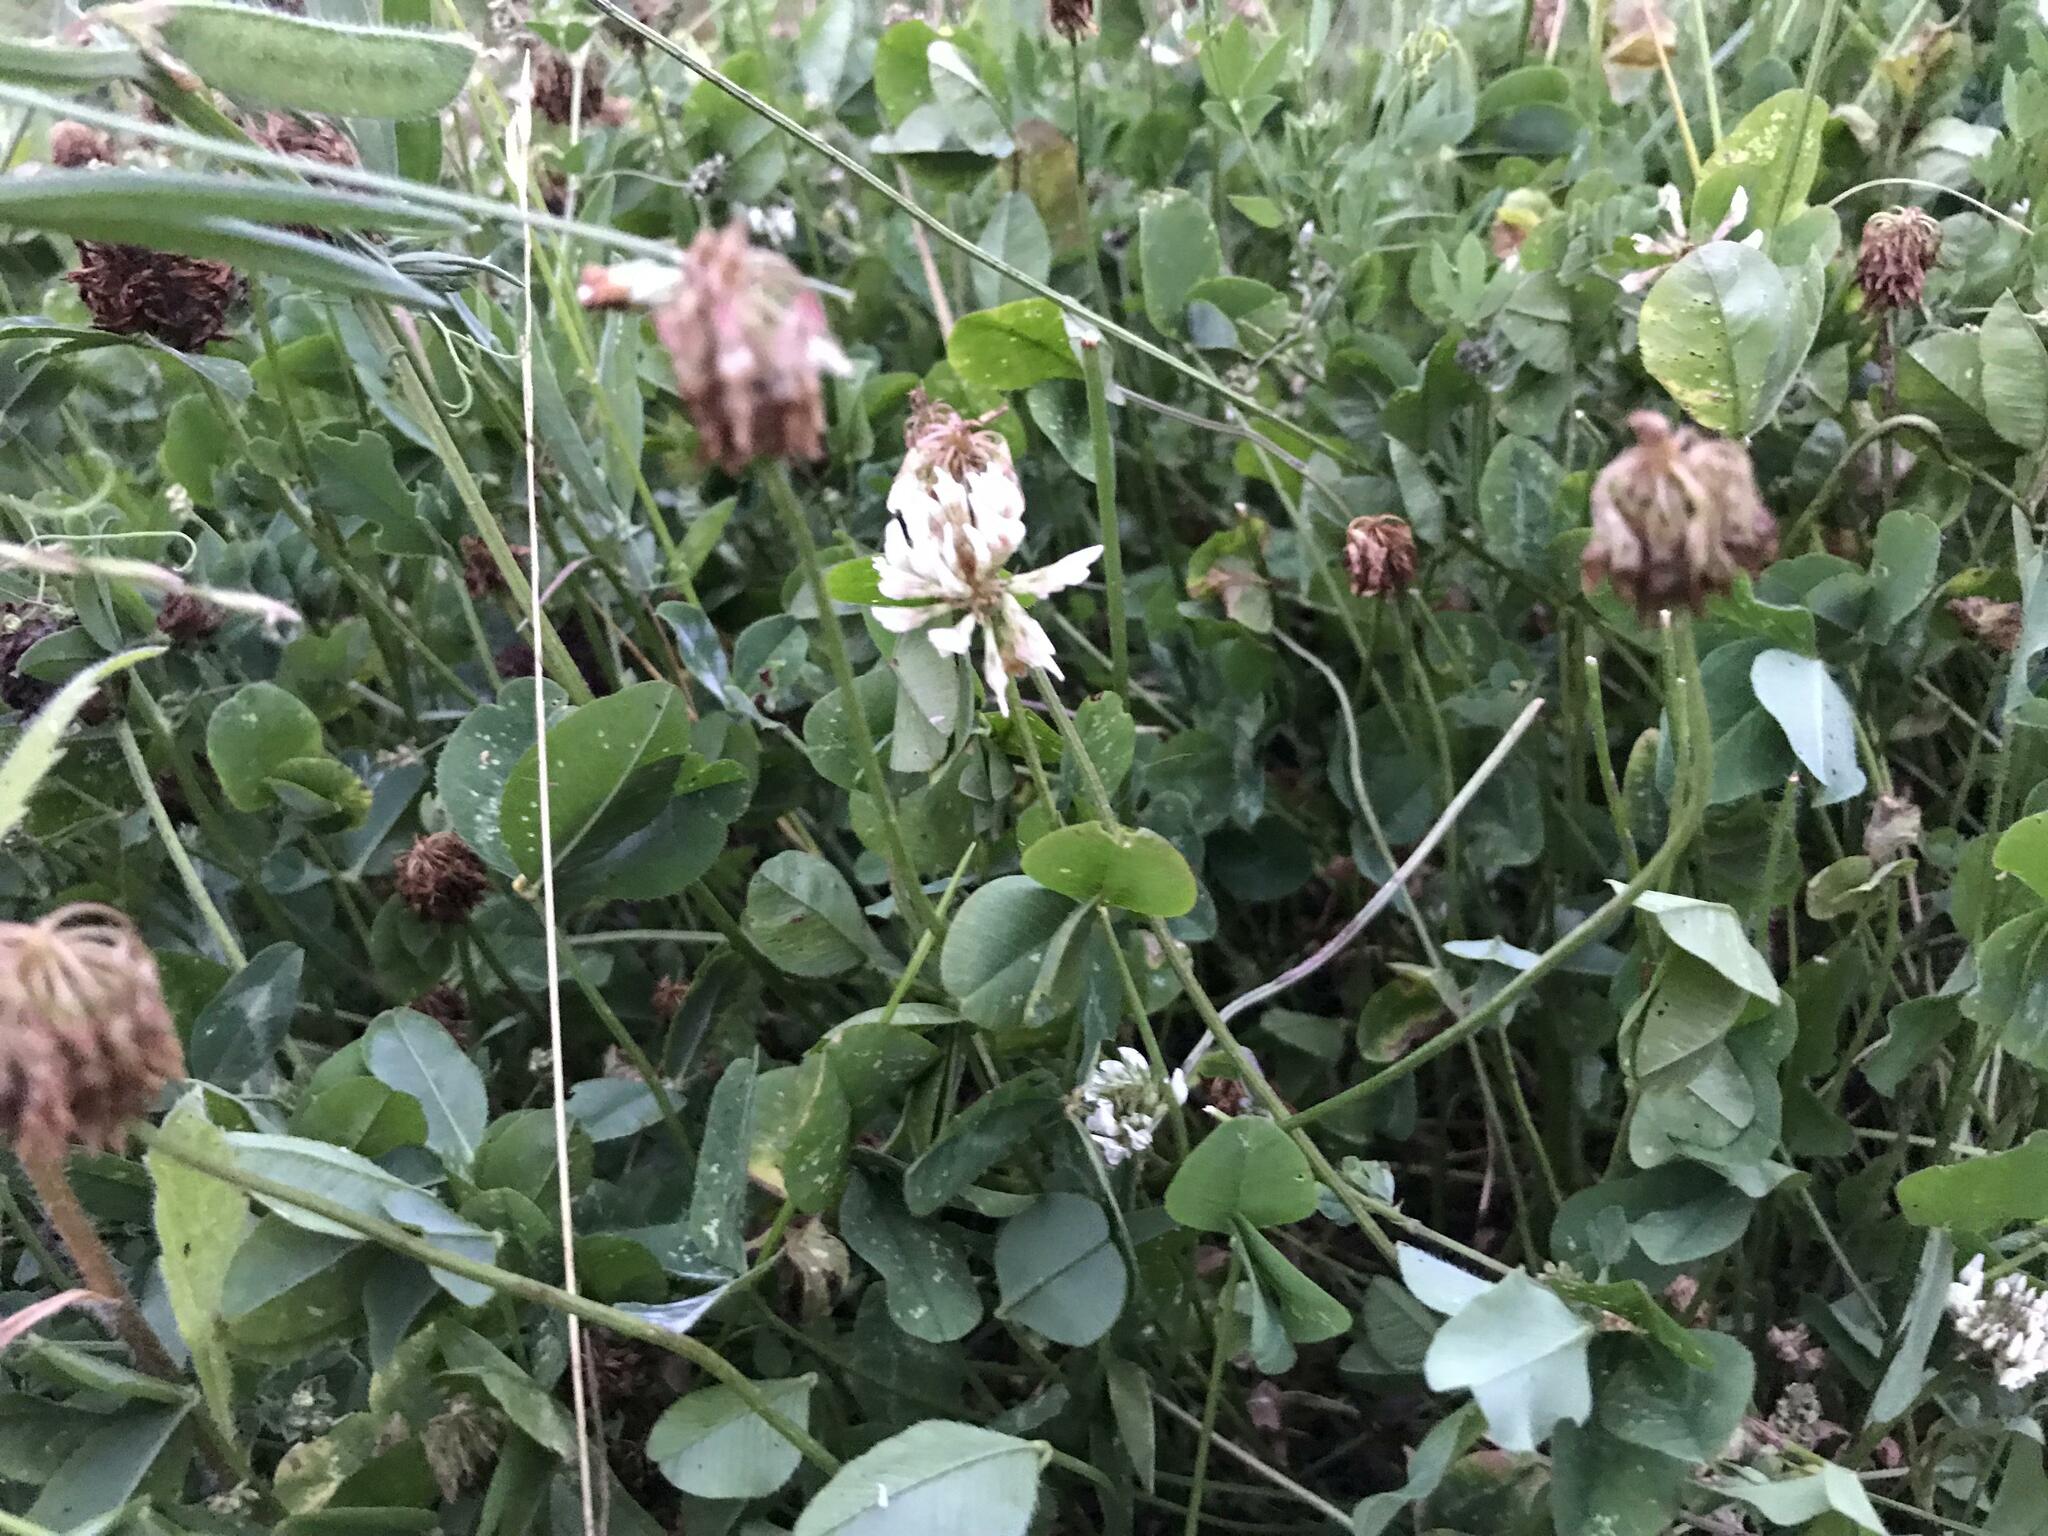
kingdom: Plantae
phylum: Tracheophyta
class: Magnoliopsida
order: Fabales
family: Fabaceae
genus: Trifolium
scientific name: Trifolium repens
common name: White clover
